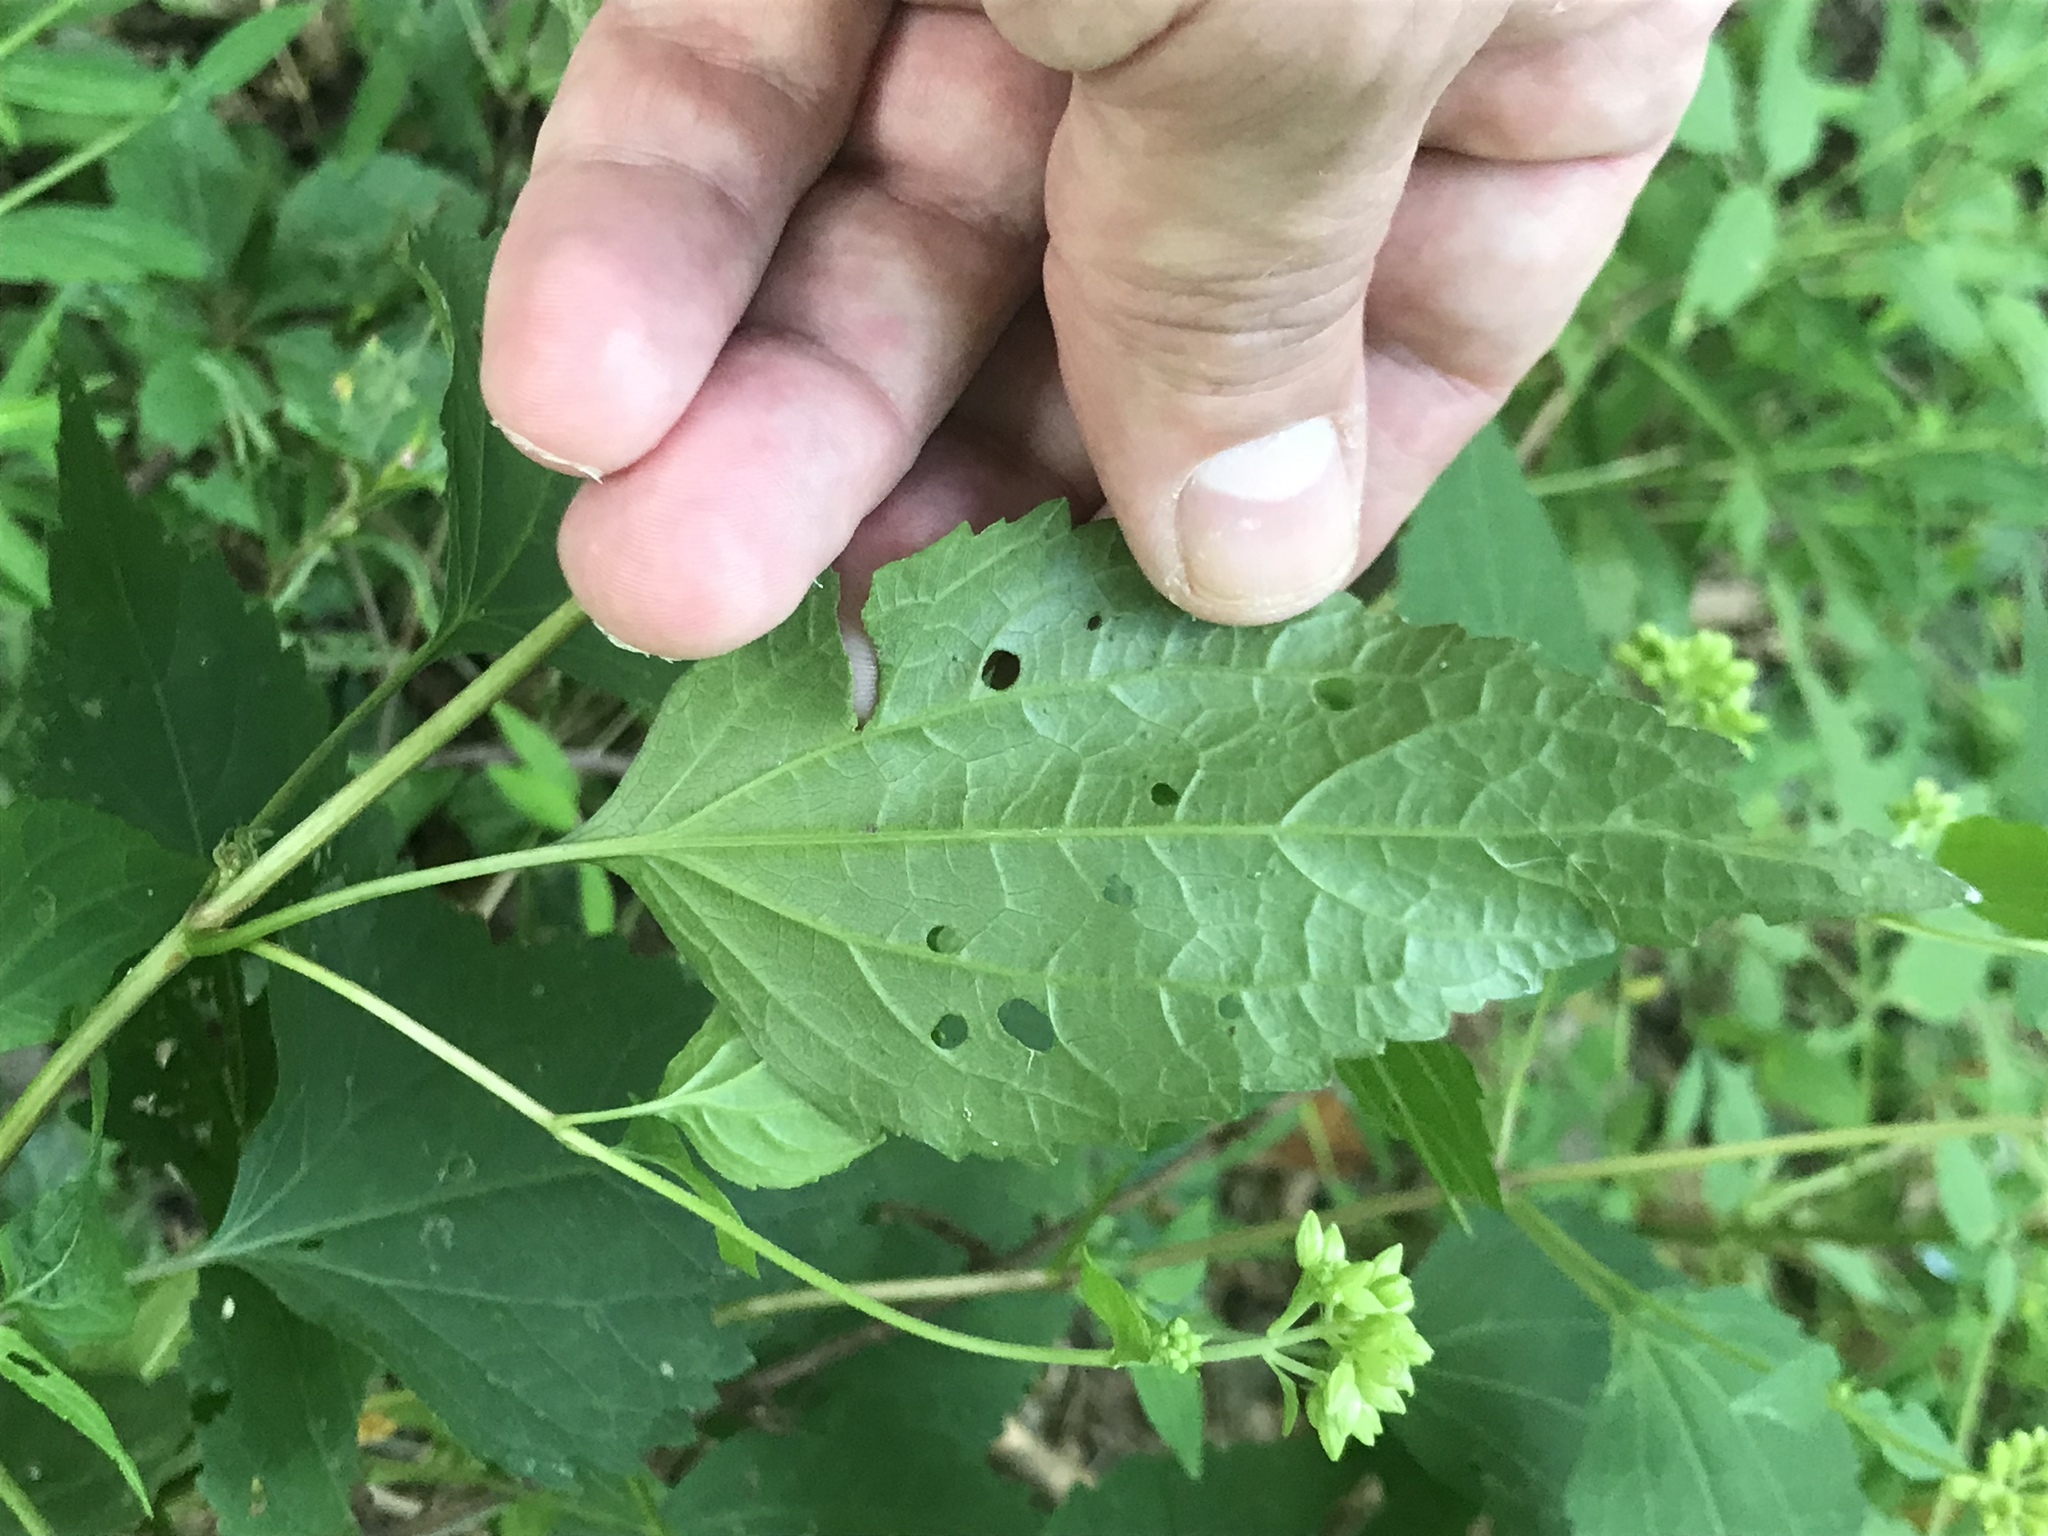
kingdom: Plantae
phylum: Tracheophyta
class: Magnoliopsida
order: Asterales
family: Asteraceae
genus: Ageratina
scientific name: Ageratina altissima
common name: White snakeroot
